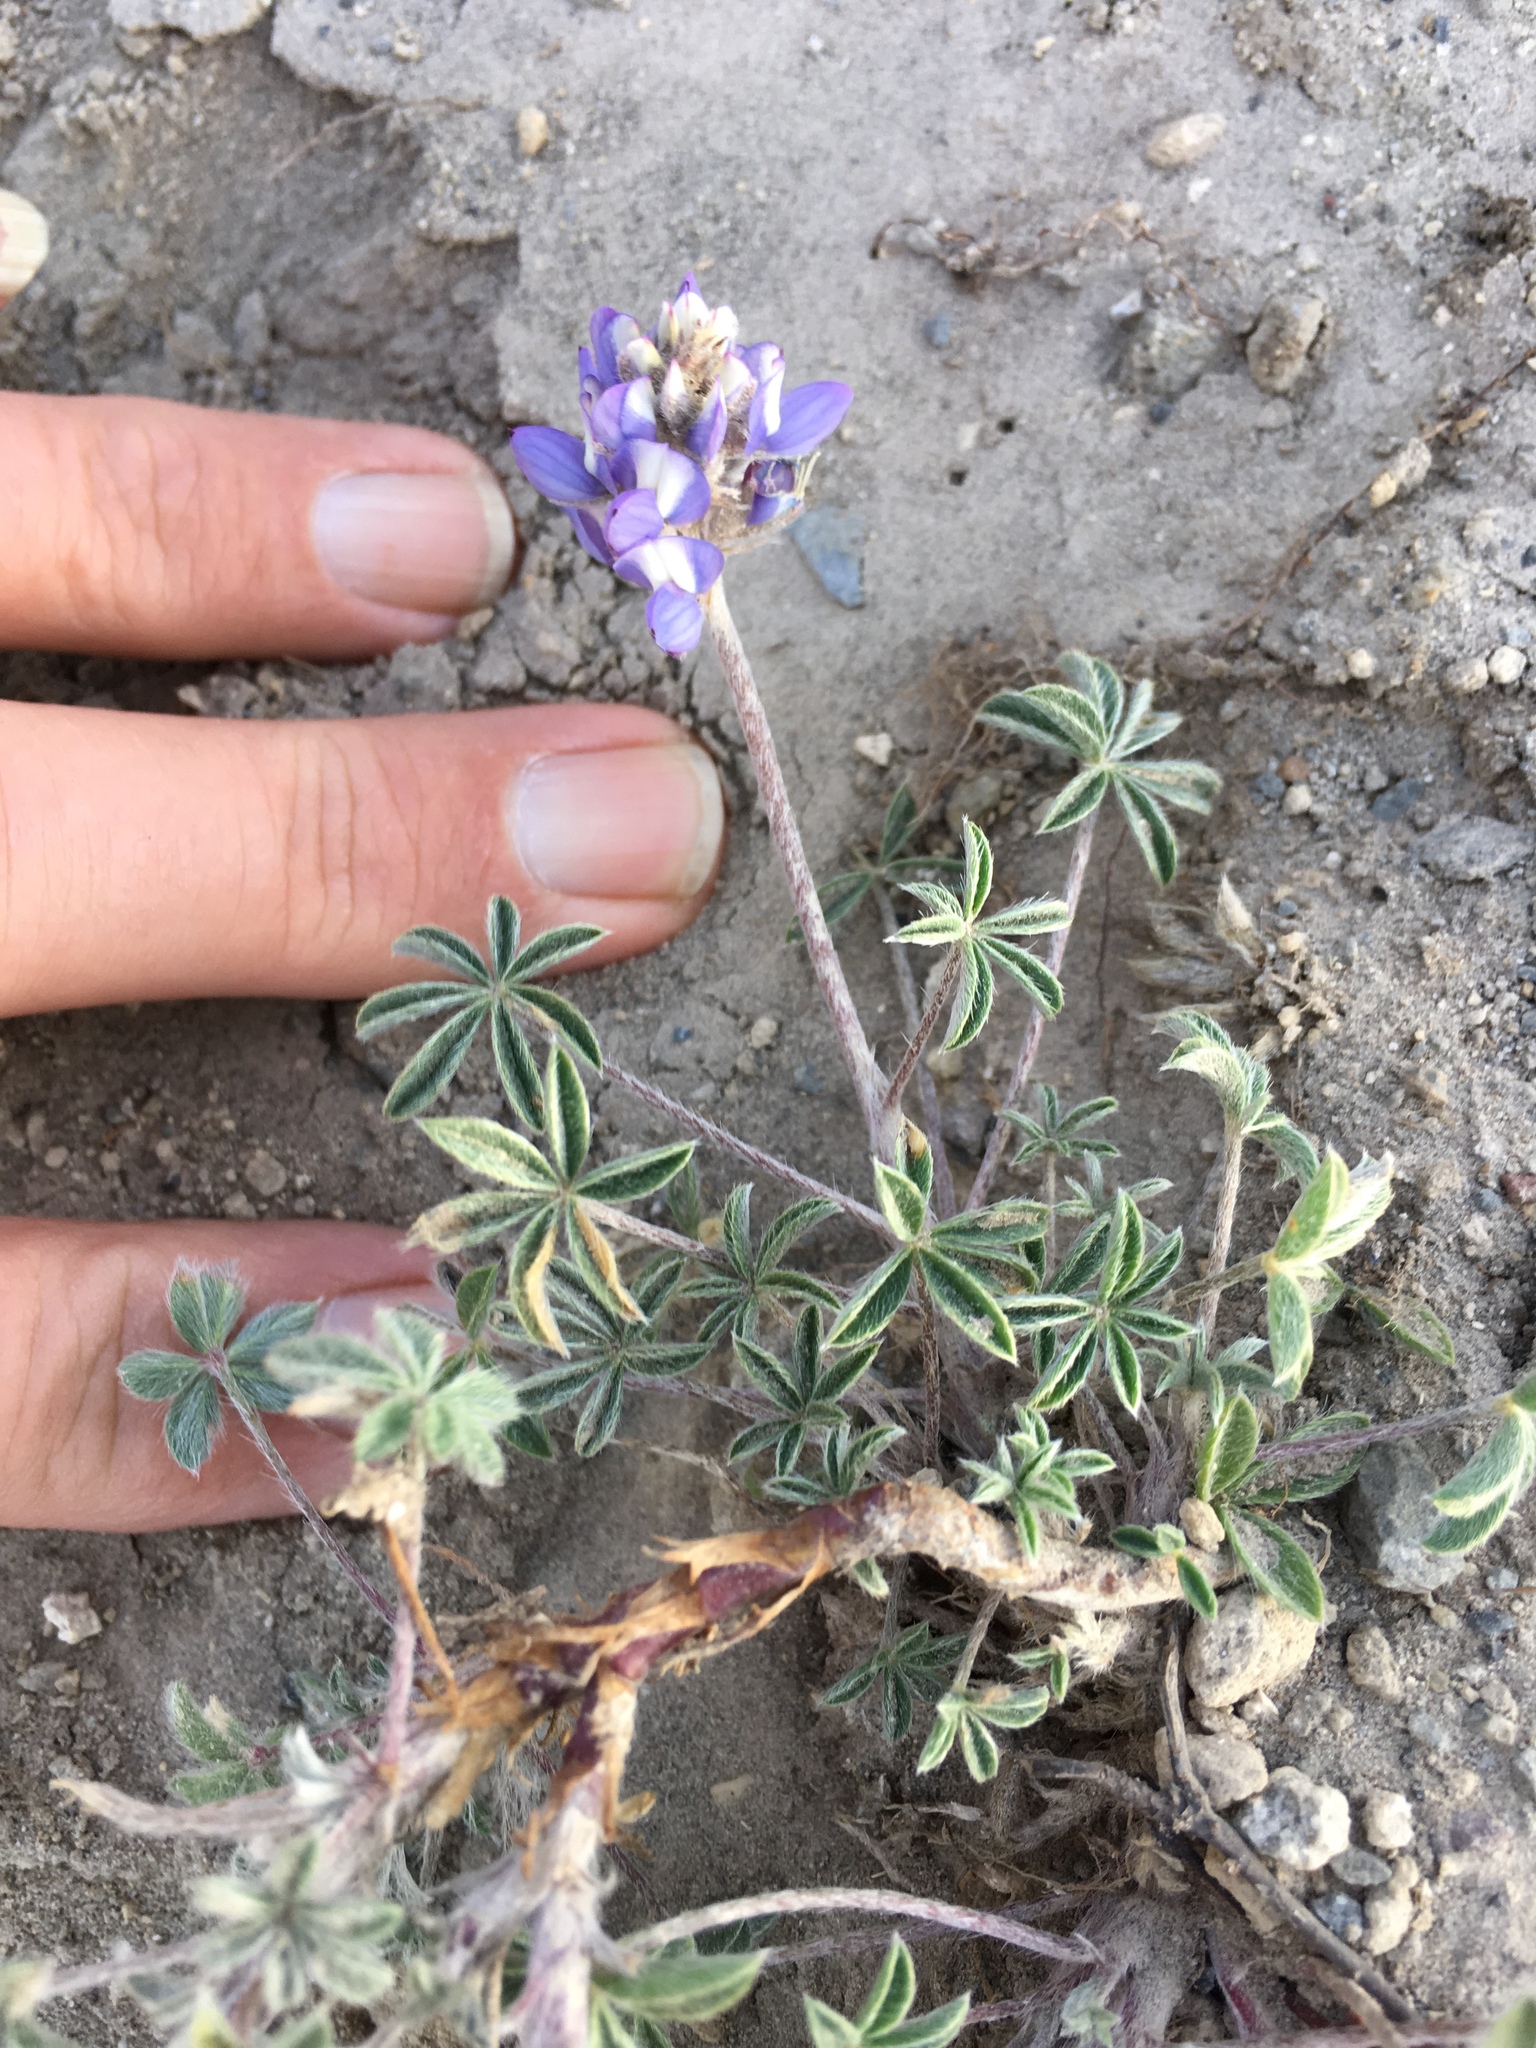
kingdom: Plantae
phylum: Tracheophyta
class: Magnoliopsida
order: Fabales
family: Fabaceae
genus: Lupinus
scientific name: Lupinus lepidus
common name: Prairie lupine
